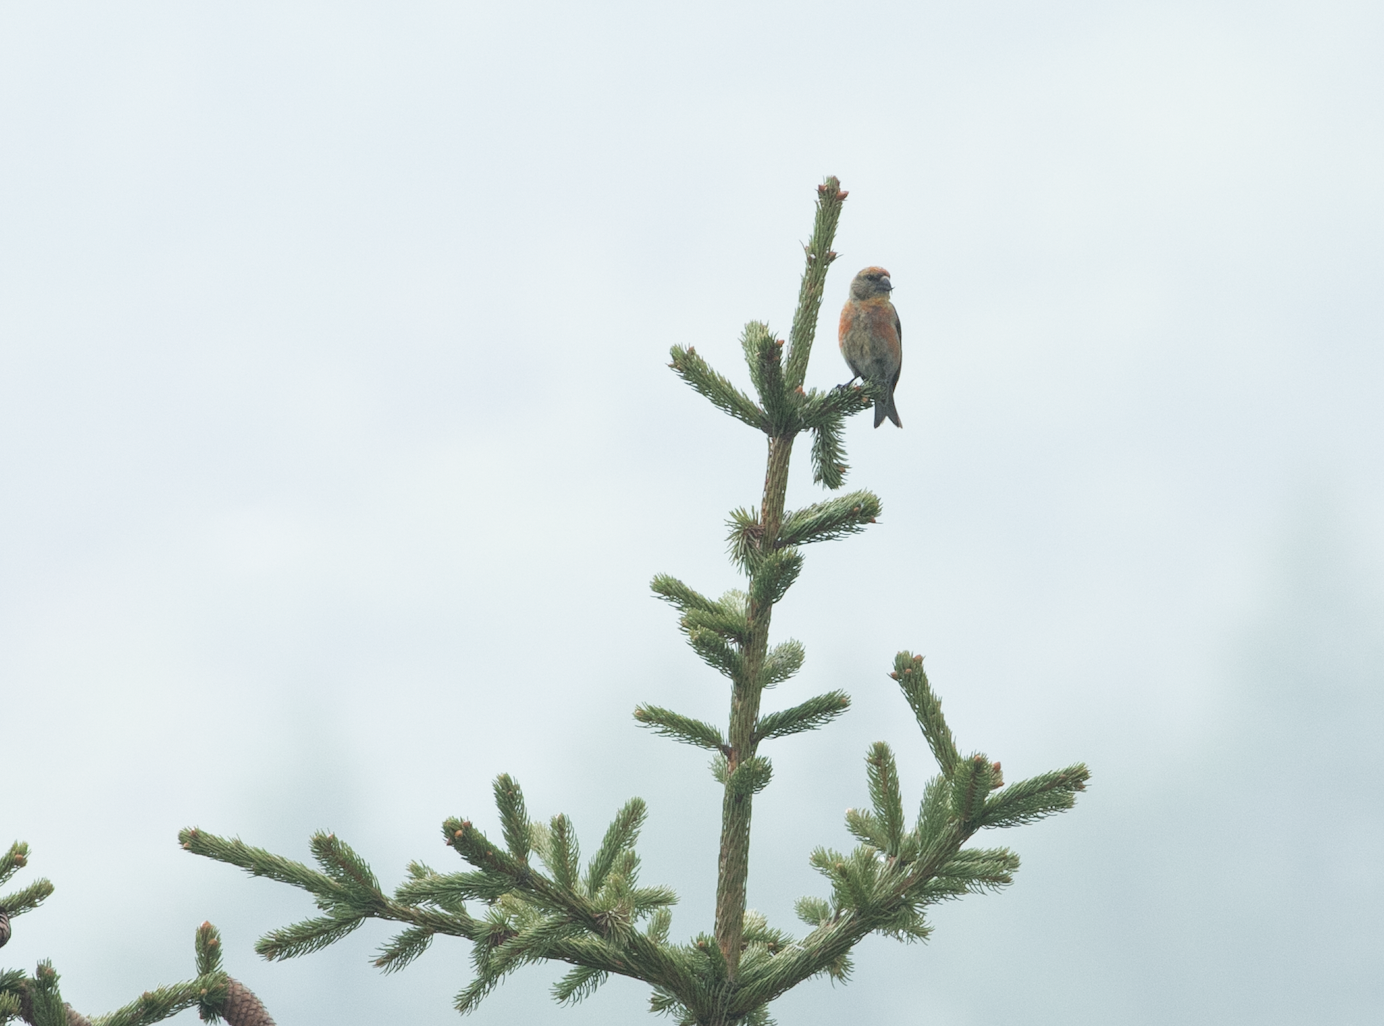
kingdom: Animalia
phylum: Chordata
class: Aves
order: Passeriformes
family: Fringillidae
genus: Loxia
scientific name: Loxia curvirostra
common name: Red crossbill
